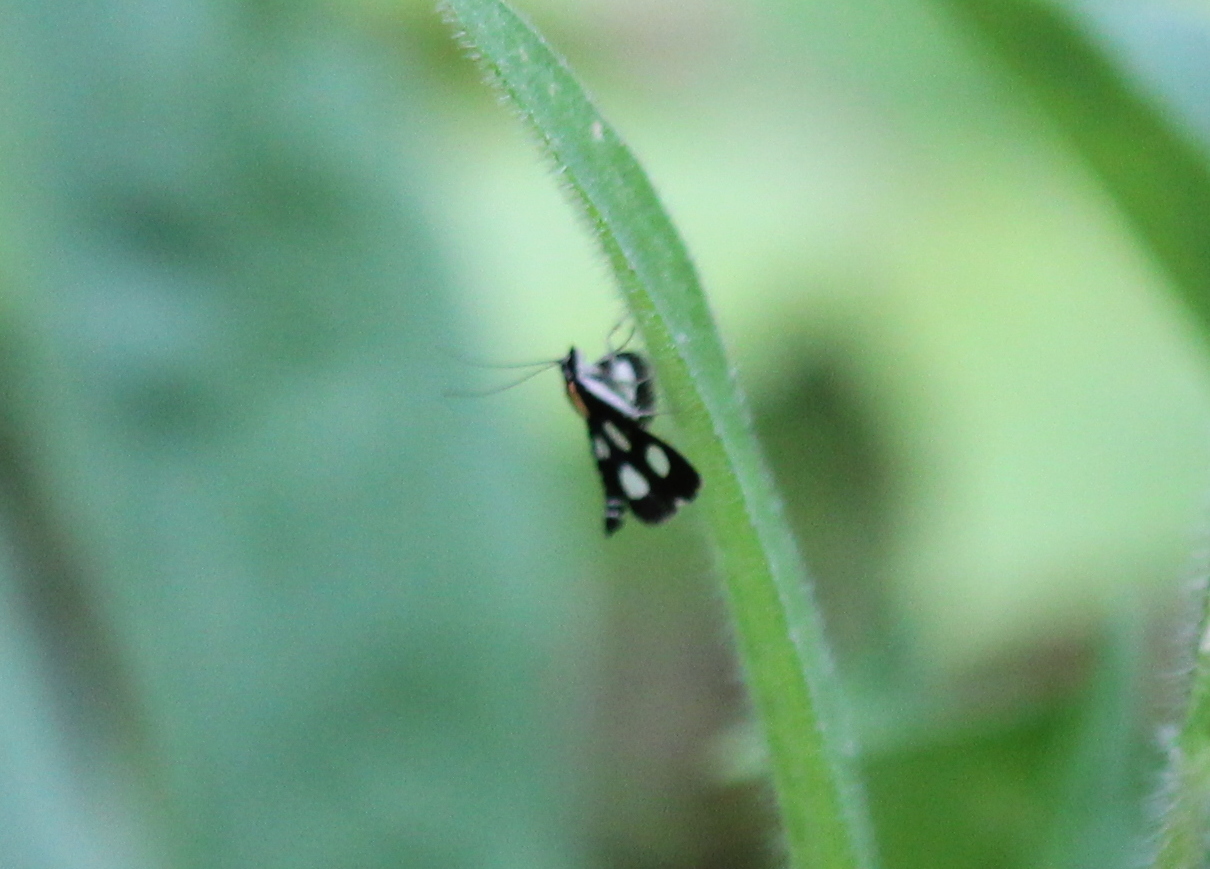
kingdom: Animalia
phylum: Arthropoda
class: Insecta
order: Lepidoptera
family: Crambidae
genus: Anania
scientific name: Anania funebris
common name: White-spotted sable moth
